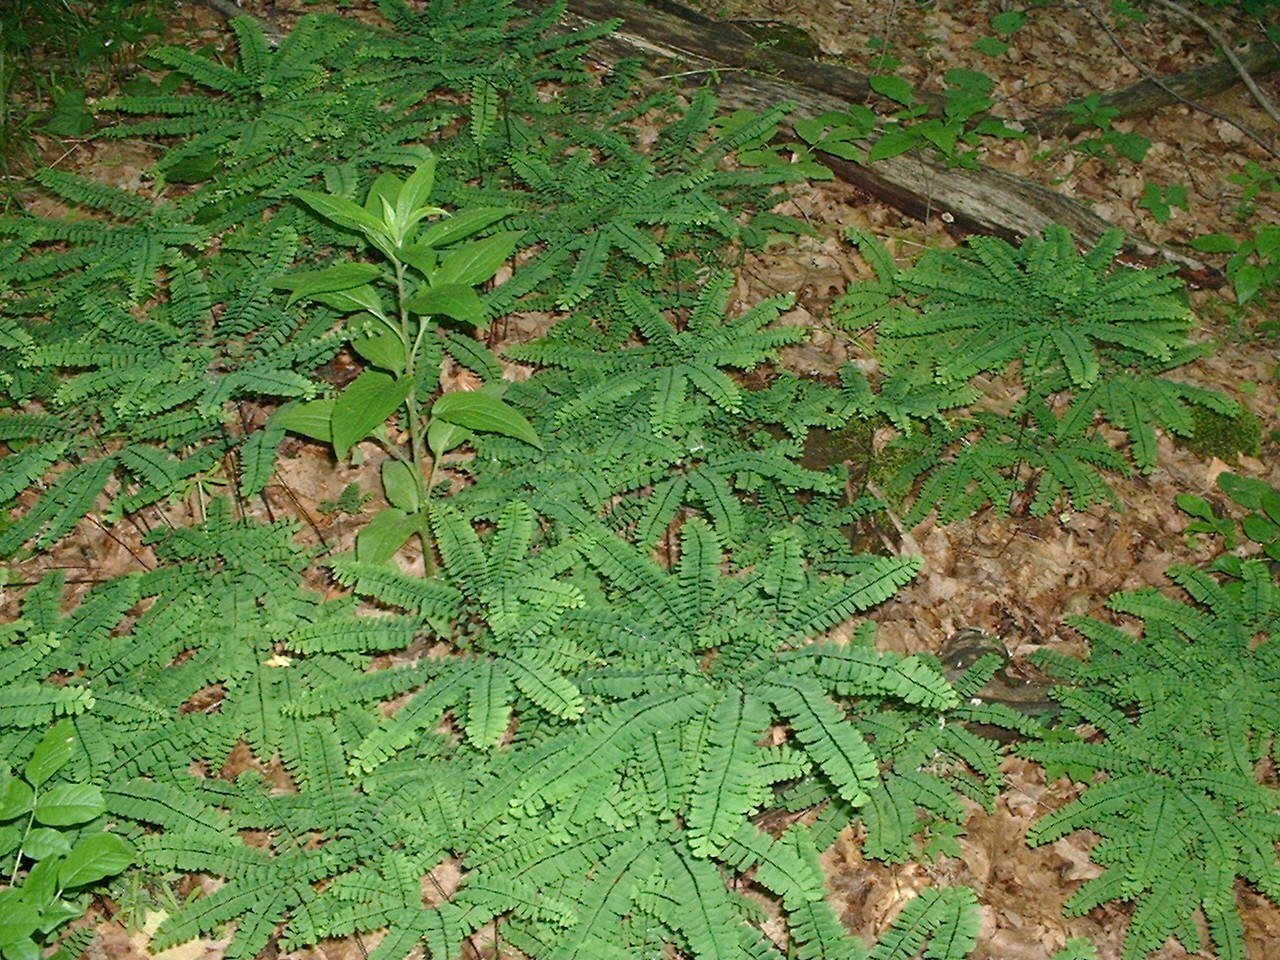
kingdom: Plantae
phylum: Tracheophyta
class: Polypodiopsida
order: Polypodiales
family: Pteridaceae
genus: Adiantum
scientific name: Adiantum pedatum
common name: Five-finger fern
